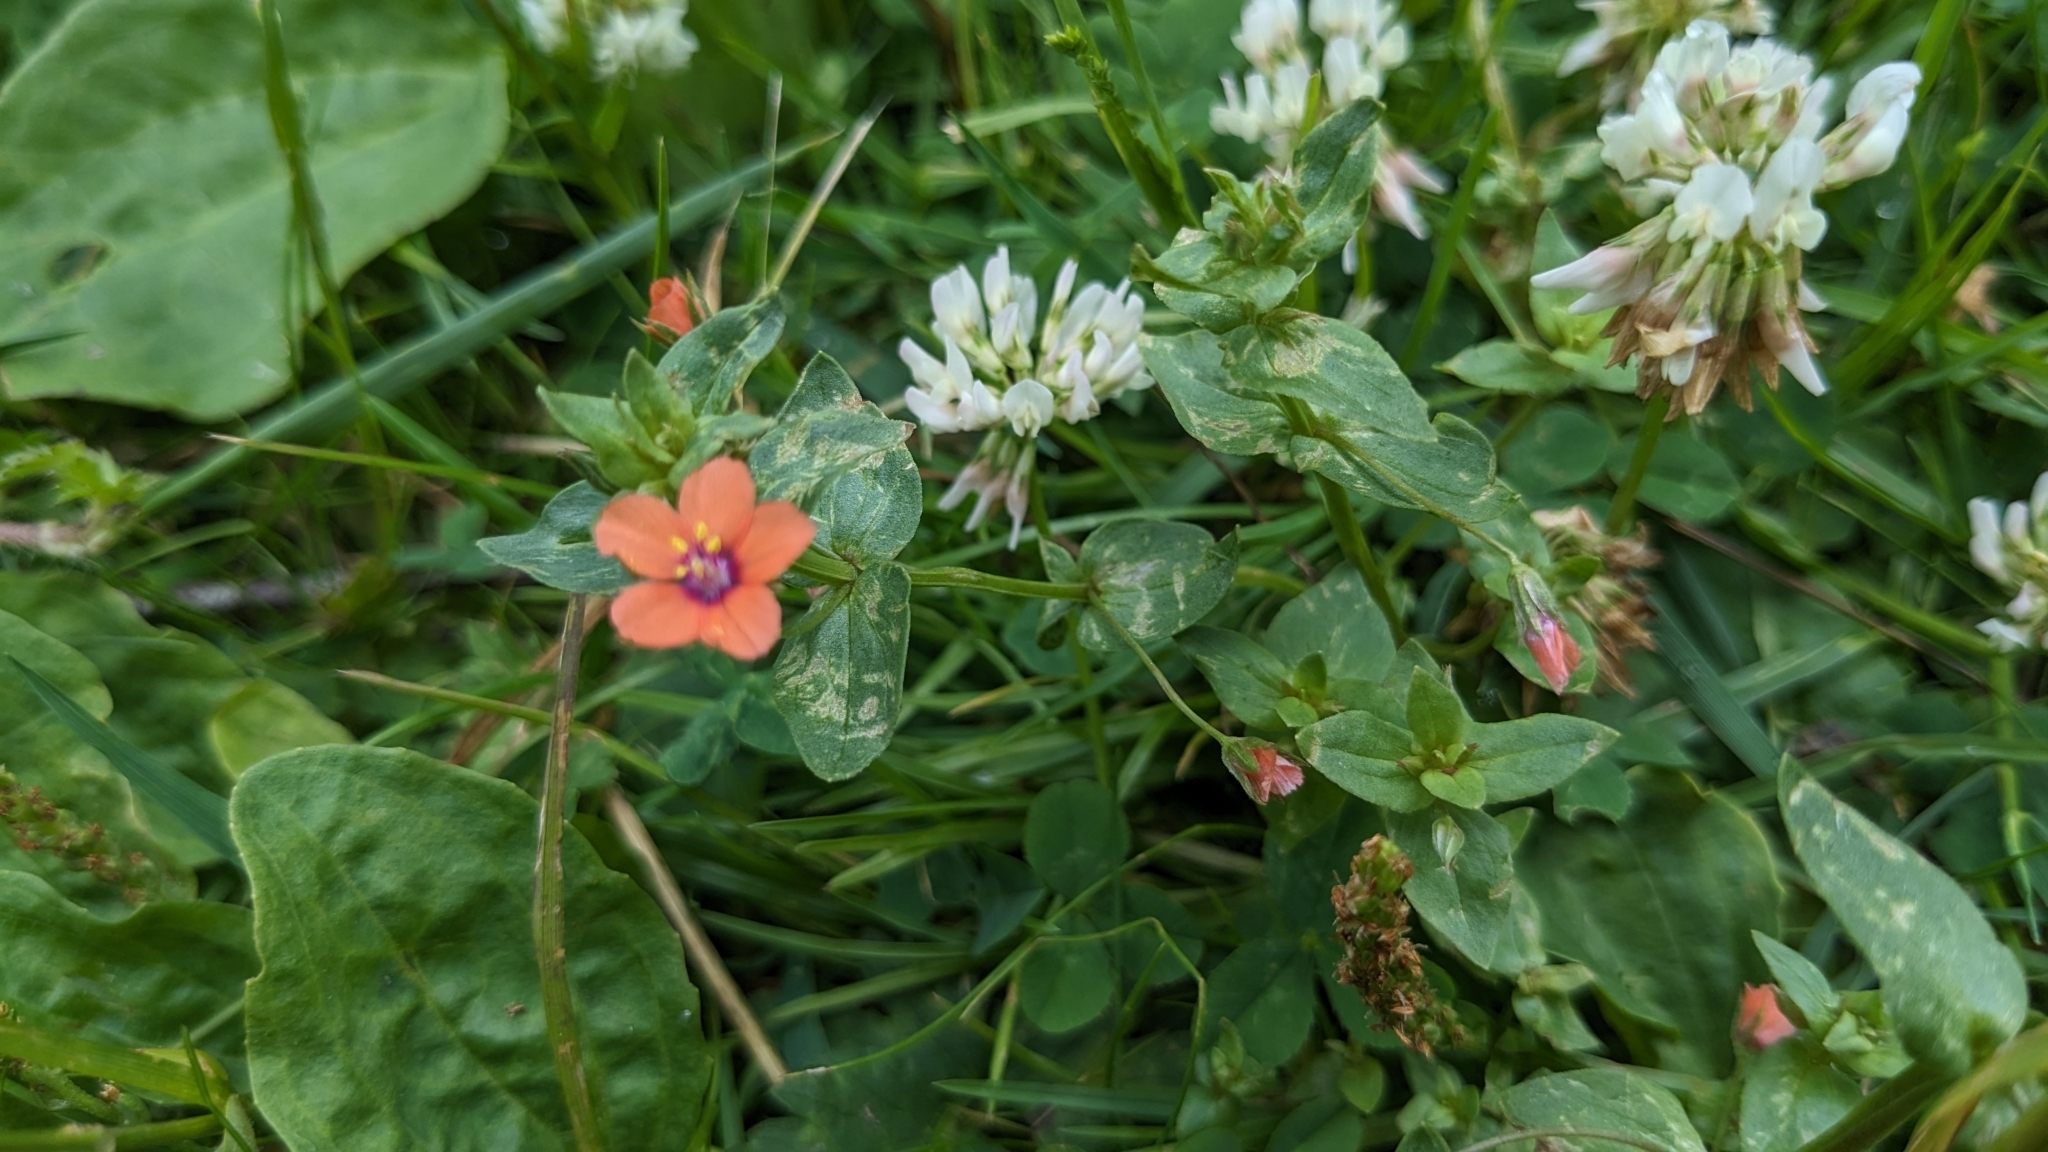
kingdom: Plantae
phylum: Tracheophyta
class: Magnoliopsida
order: Ericales
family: Primulaceae
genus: Lysimachia
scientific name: Lysimachia arvensis
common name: Scarlet pimpernel
